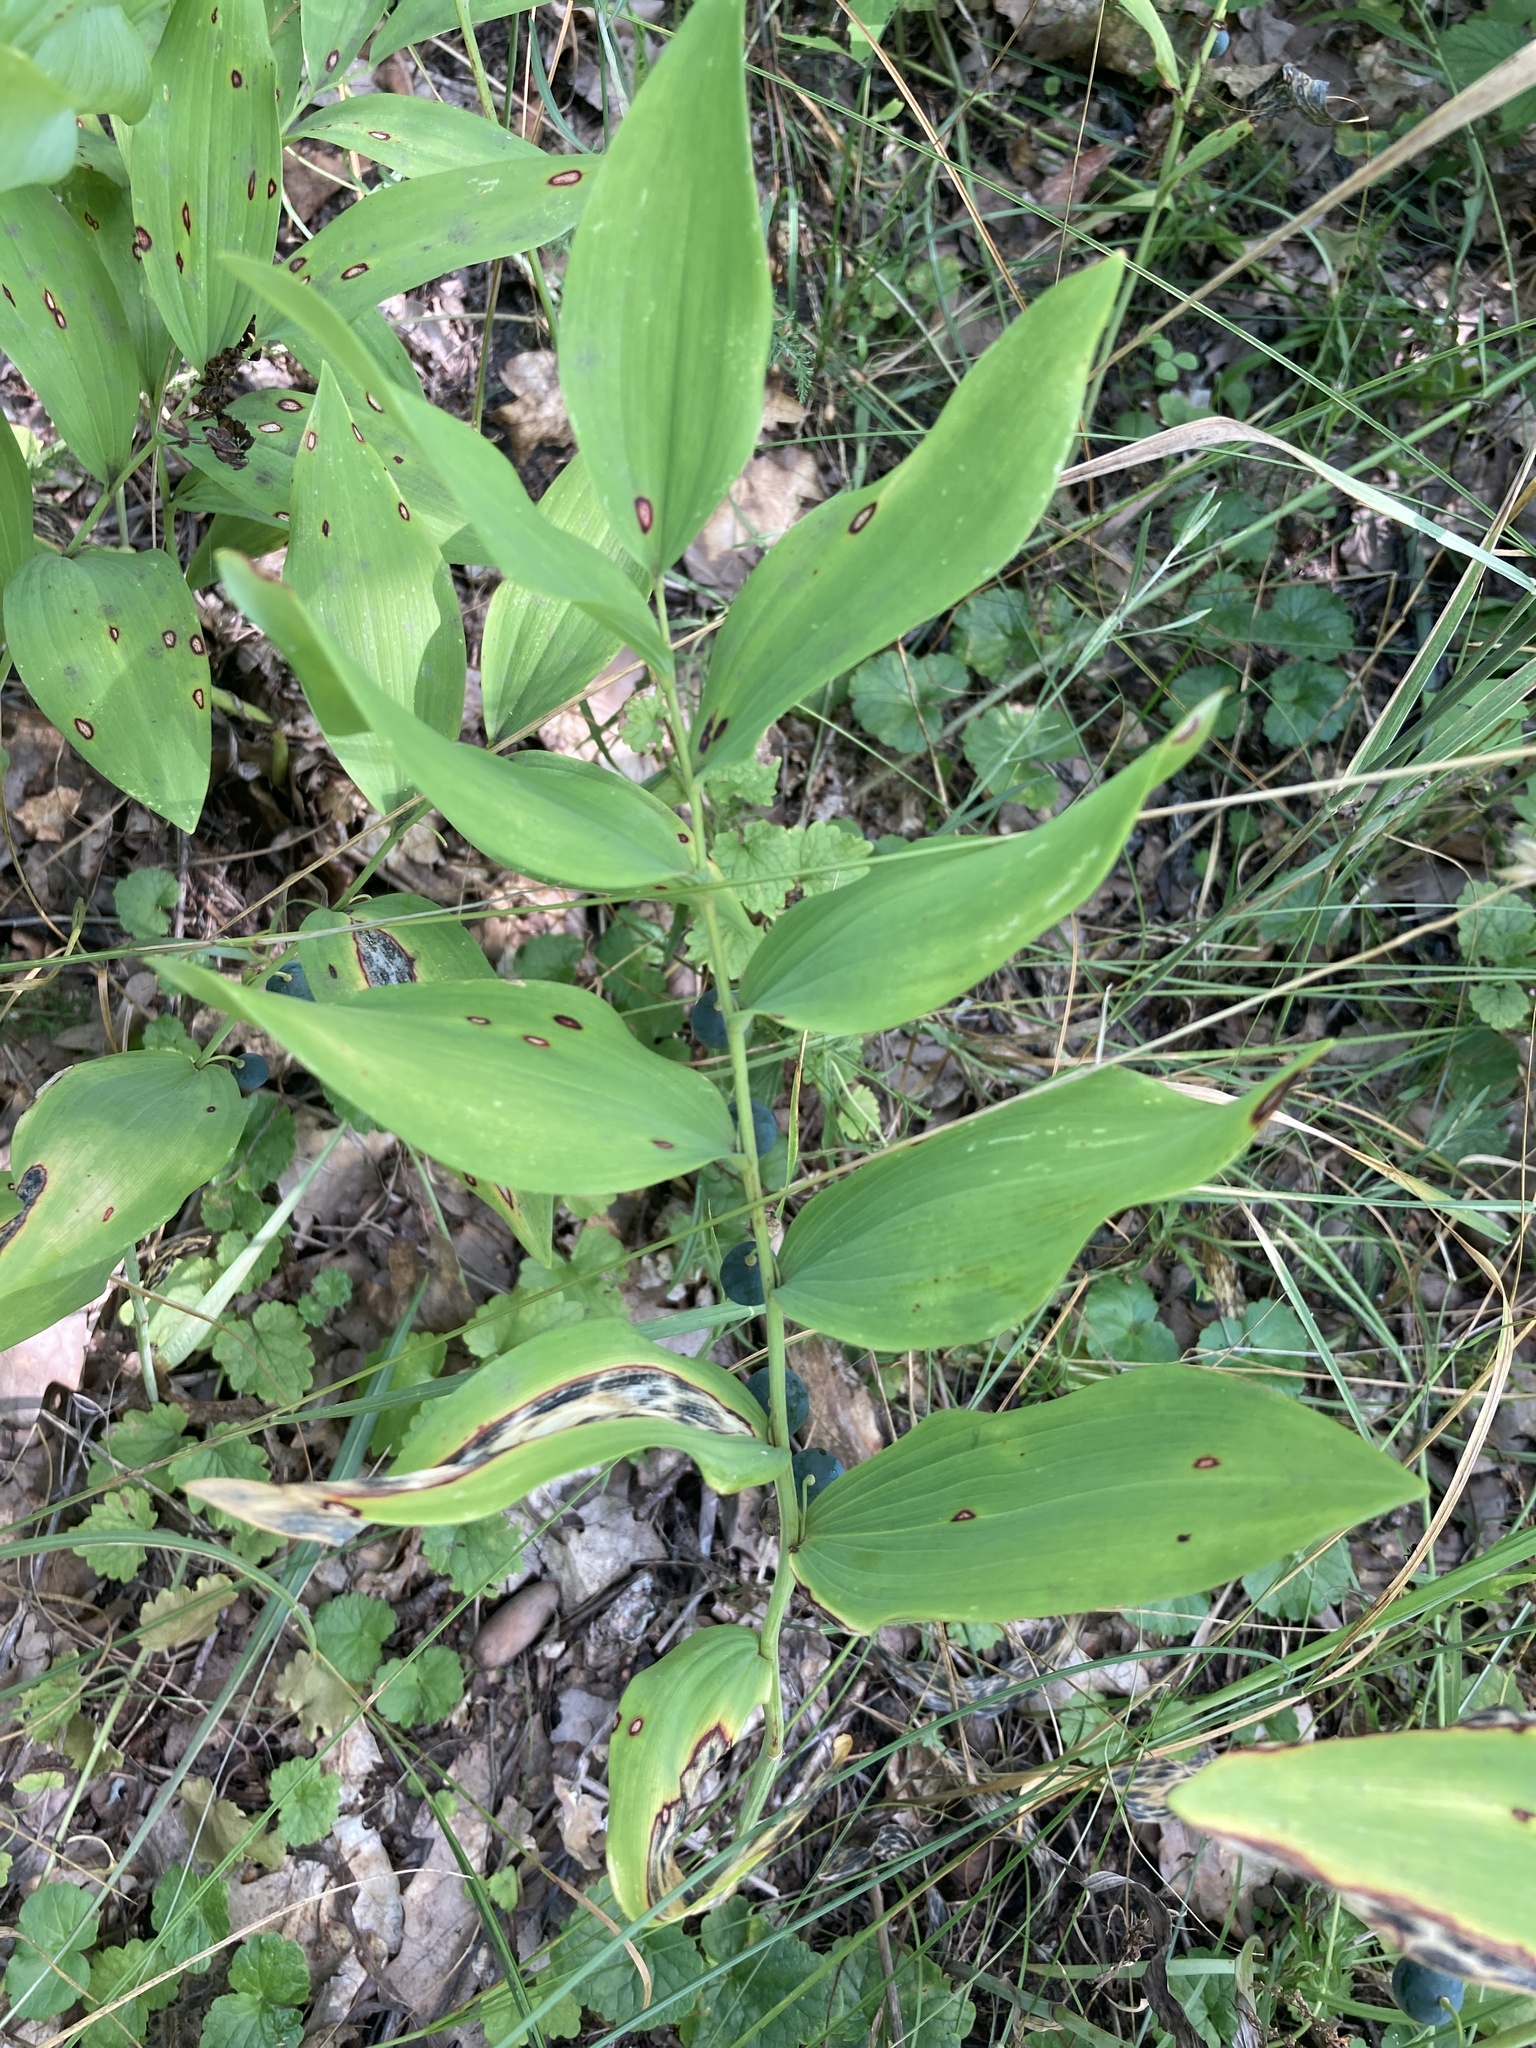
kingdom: Plantae
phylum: Tracheophyta
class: Liliopsida
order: Asparagales
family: Asparagaceae
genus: Polygonatum
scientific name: Polygonatum odoratum
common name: Angular solomon's-seal
